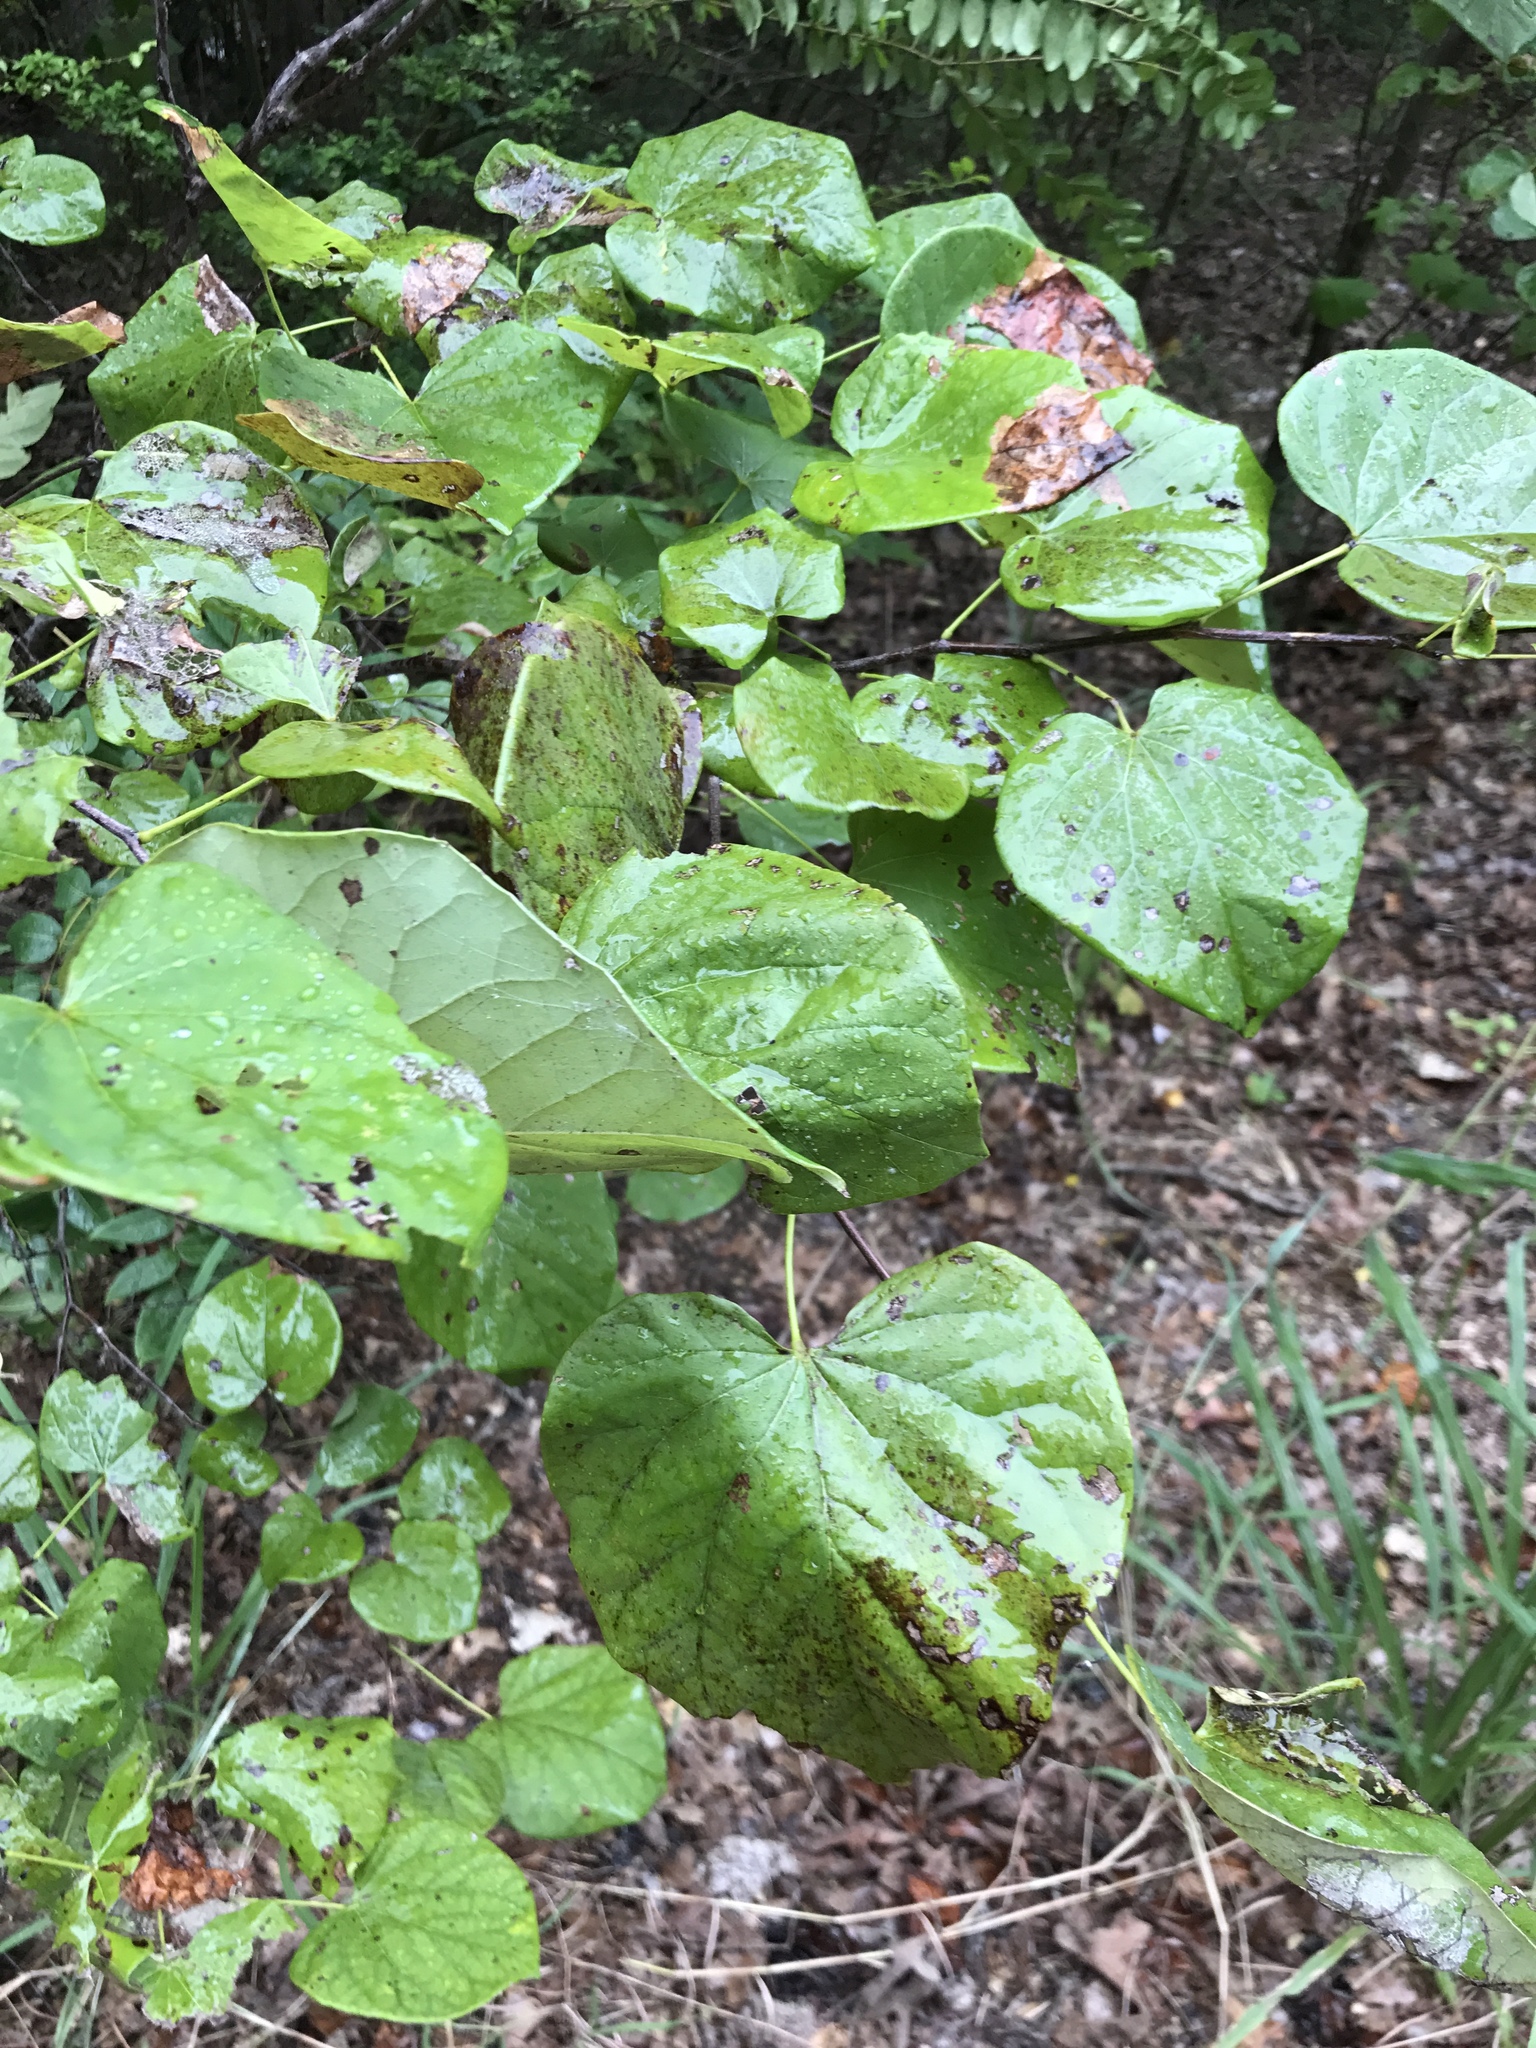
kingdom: Plantae
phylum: Tracheophyta
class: Magnoliopsida
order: Fabales
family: Fabaceae
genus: Cercis
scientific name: Cercis canadensis
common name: Eastern redbud
